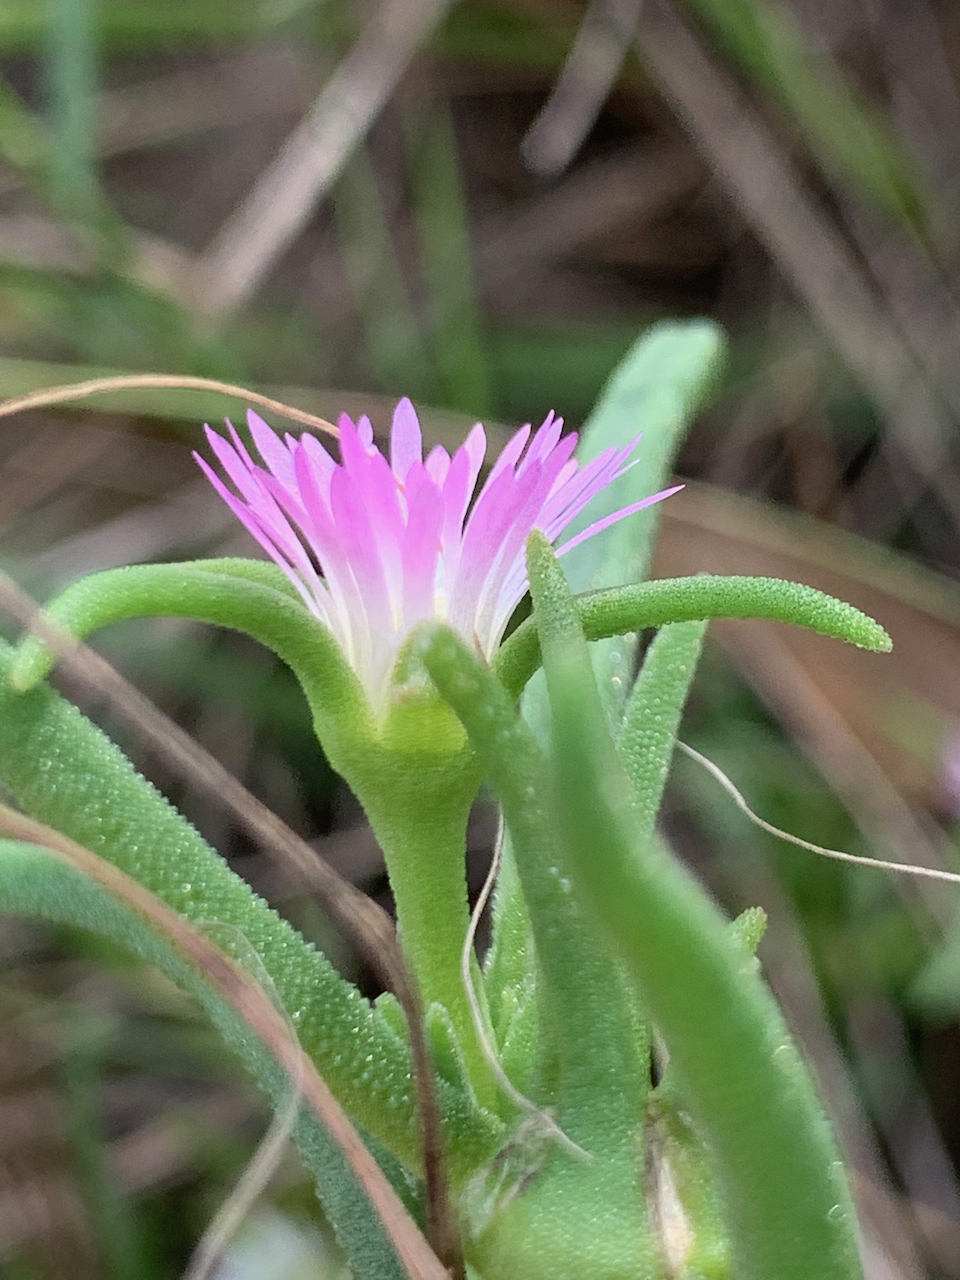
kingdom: Plantae
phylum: Tracheophyta
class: Magnoliopsida
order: Caryophyllales
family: Aizoaceae
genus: Delosperma
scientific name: Delosperma herbeum
